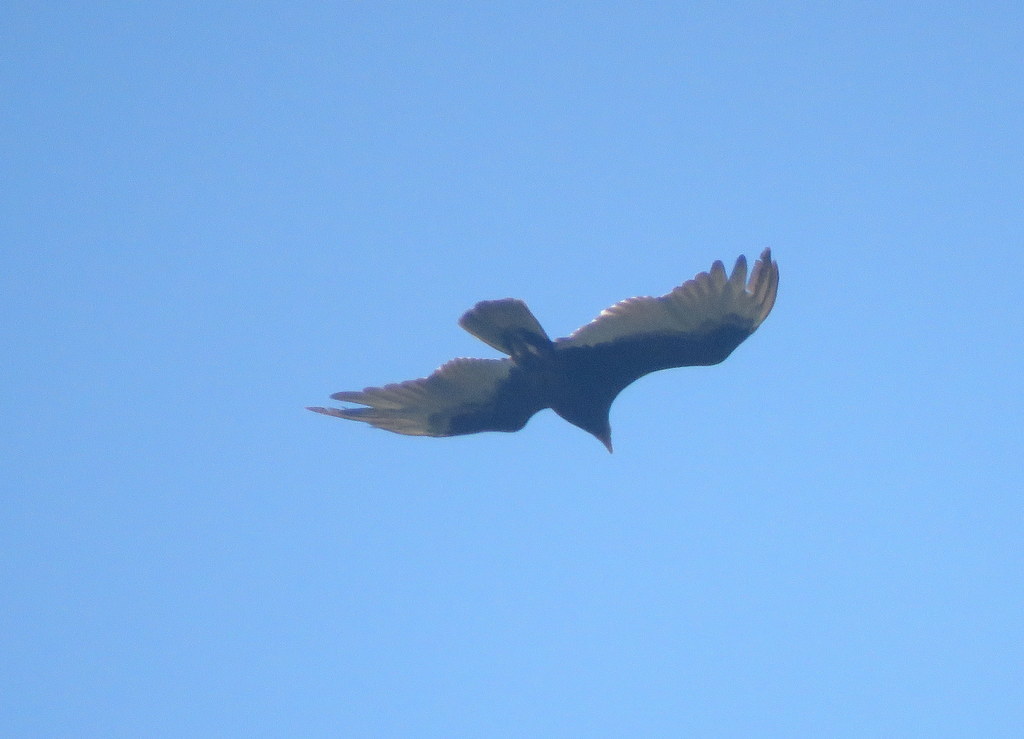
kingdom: Animalia
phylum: Chordata
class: Aves
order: Accipitriformes
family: Cathartidae
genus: Cathartes
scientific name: Cathartes aura
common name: Turkey vulture
